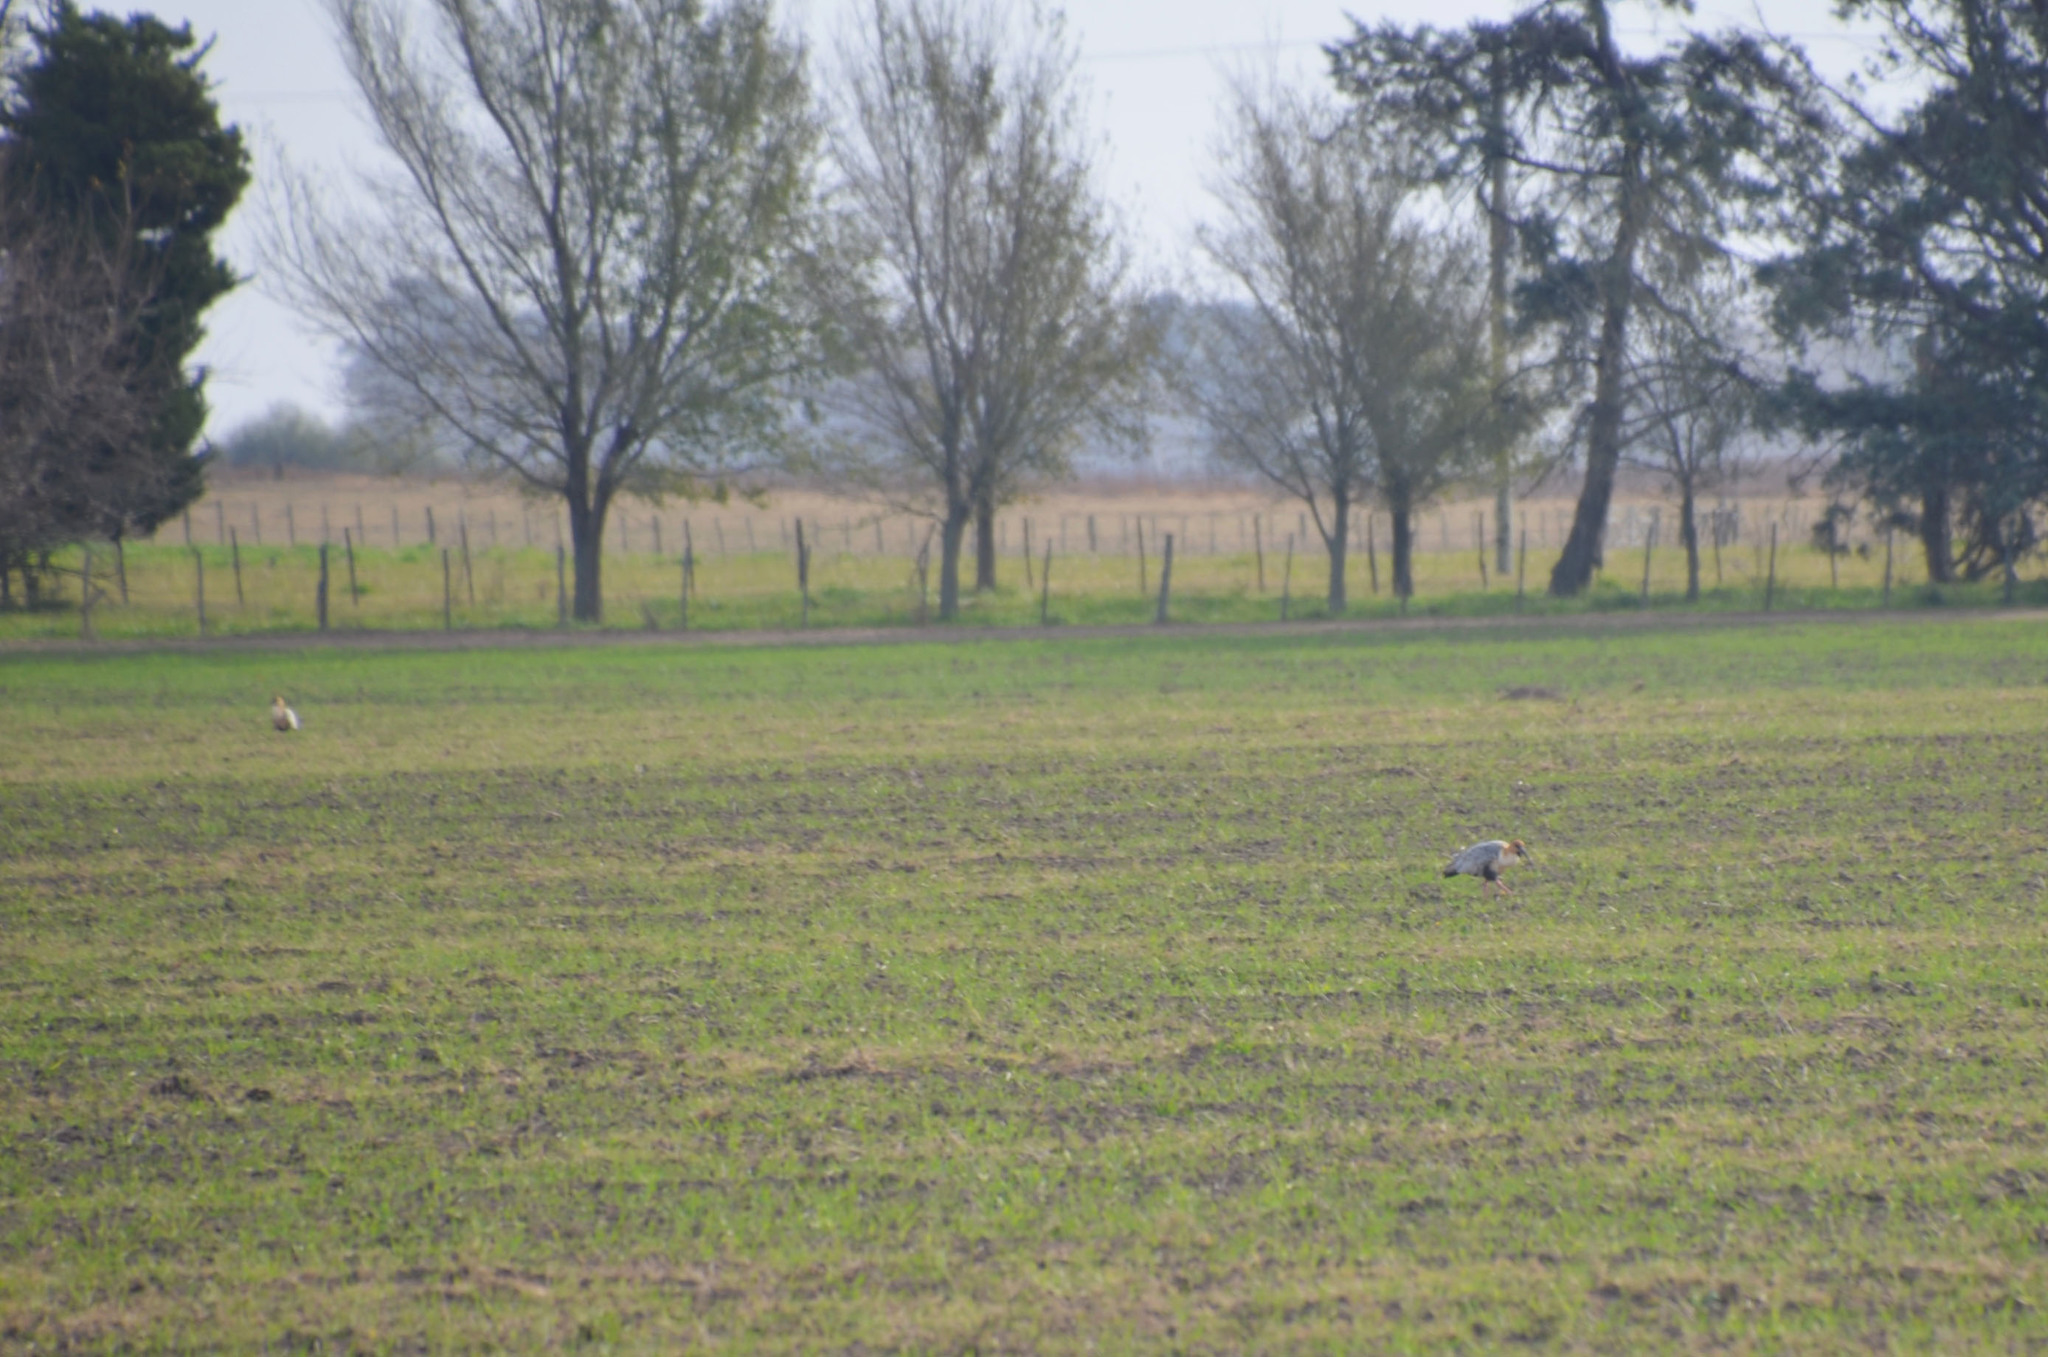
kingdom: Animalia
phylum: Chordata
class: Aves
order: Pelecaniformes
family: Threskiornithidae
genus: Theristicus
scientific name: Theristicus melanopis
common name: Black-faced ibis
